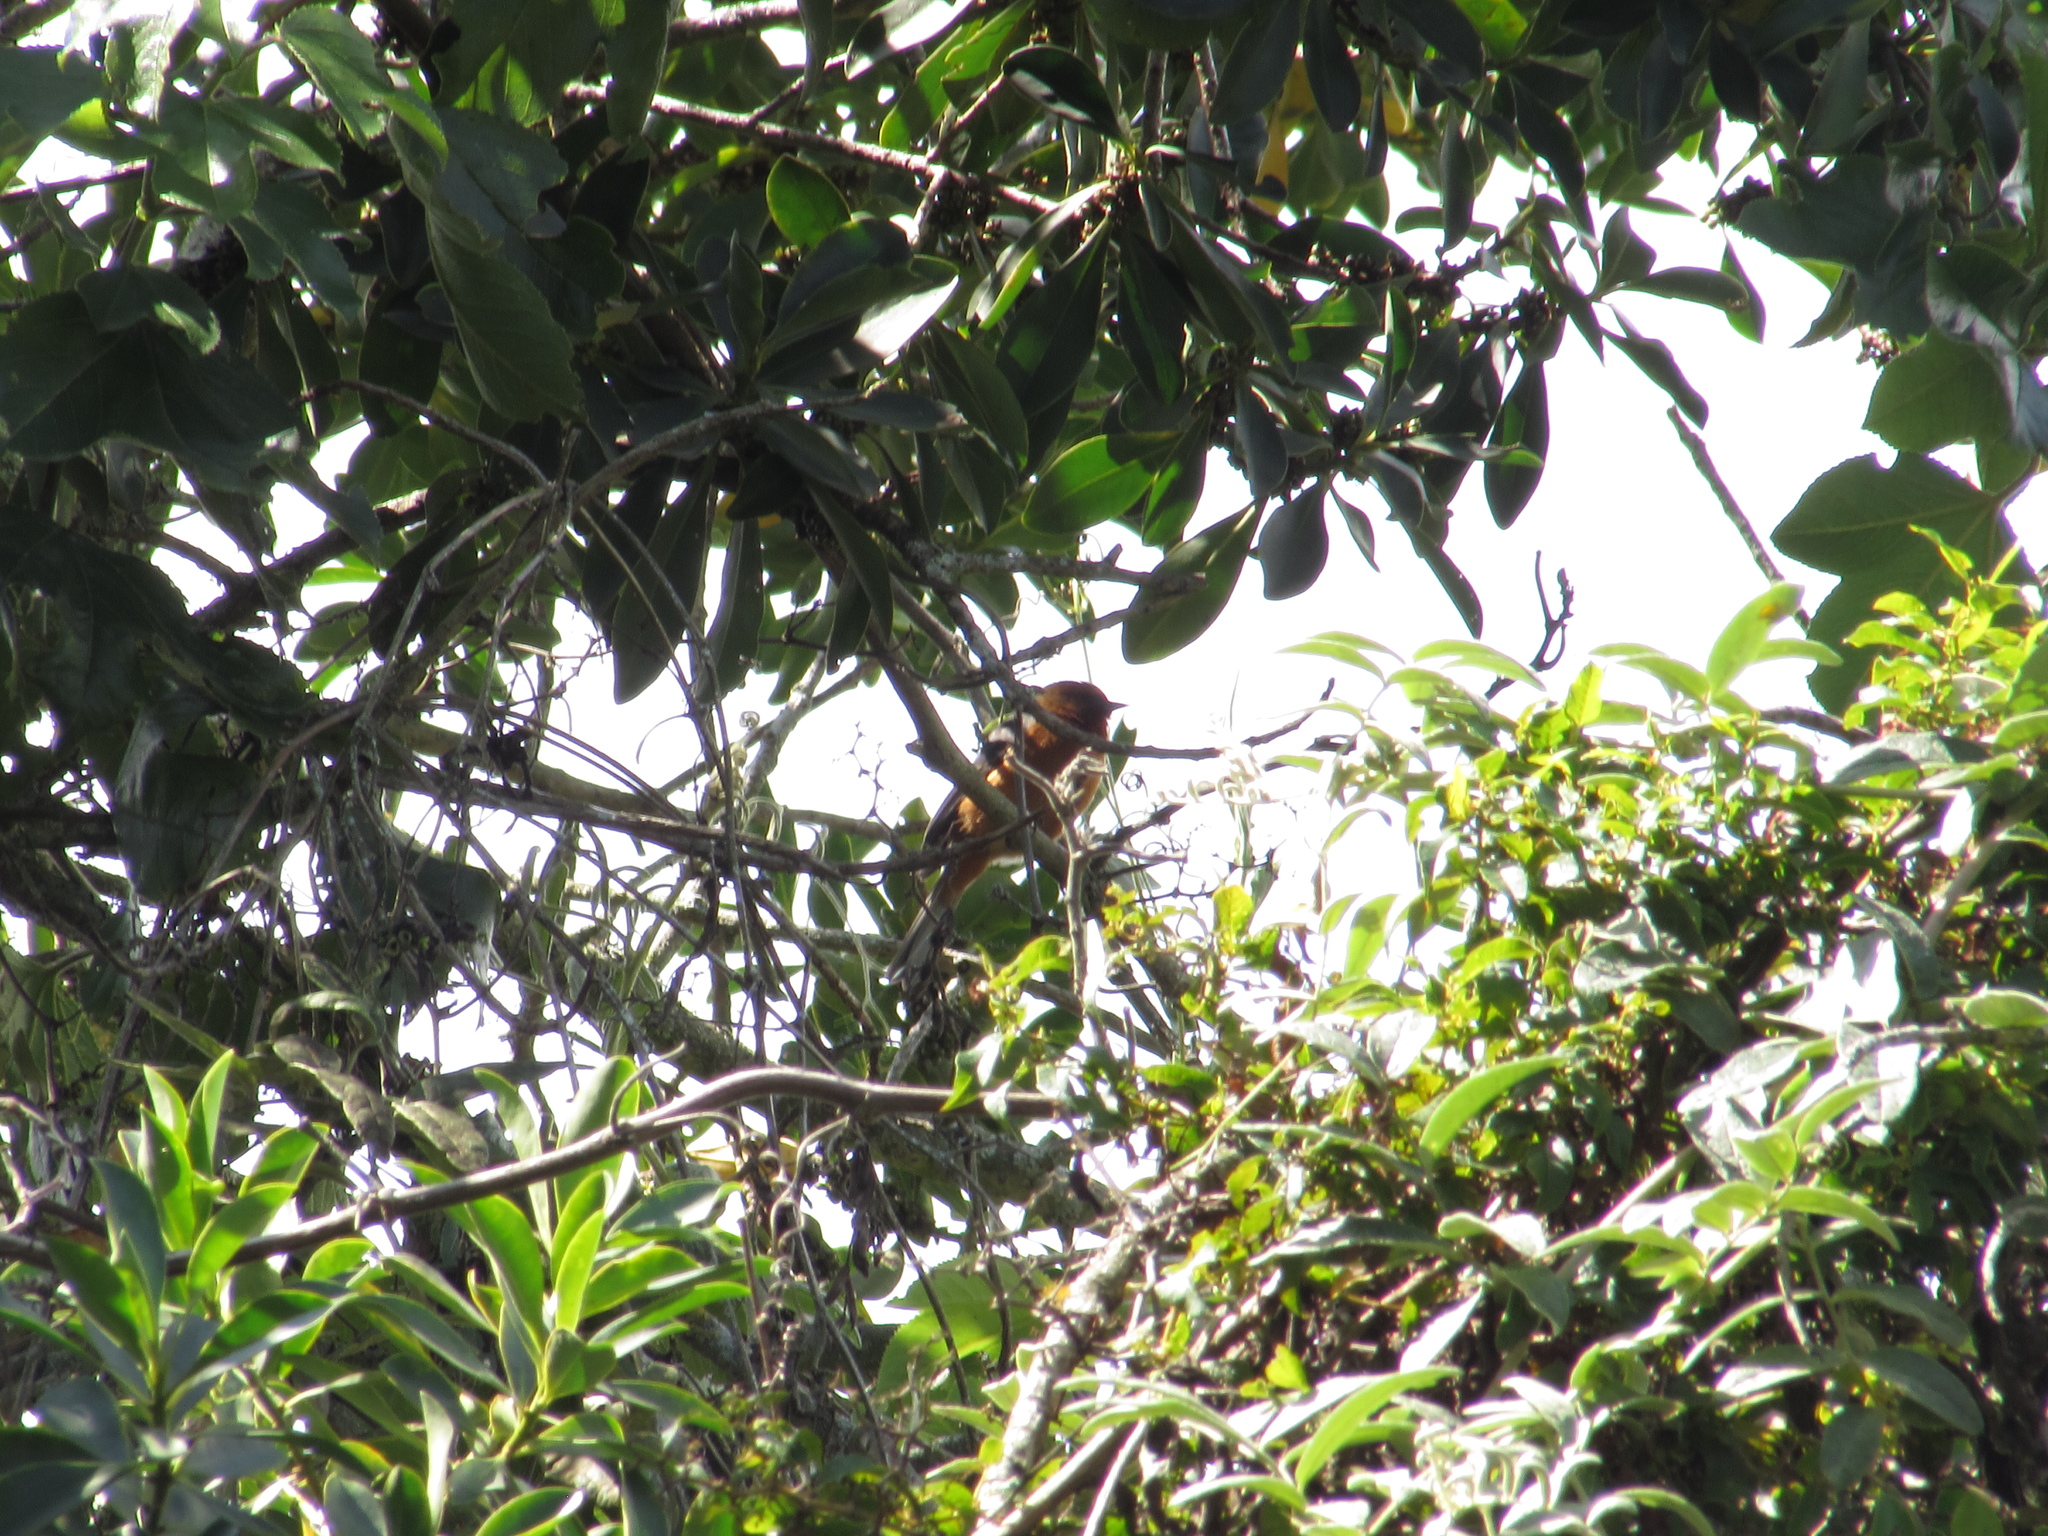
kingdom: Animalia
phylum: Chordata
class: Aves
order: Passeriformes
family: Thraupidae
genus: Conirostrum
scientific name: Conirostrum rufum
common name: Rufous-browed conebill
